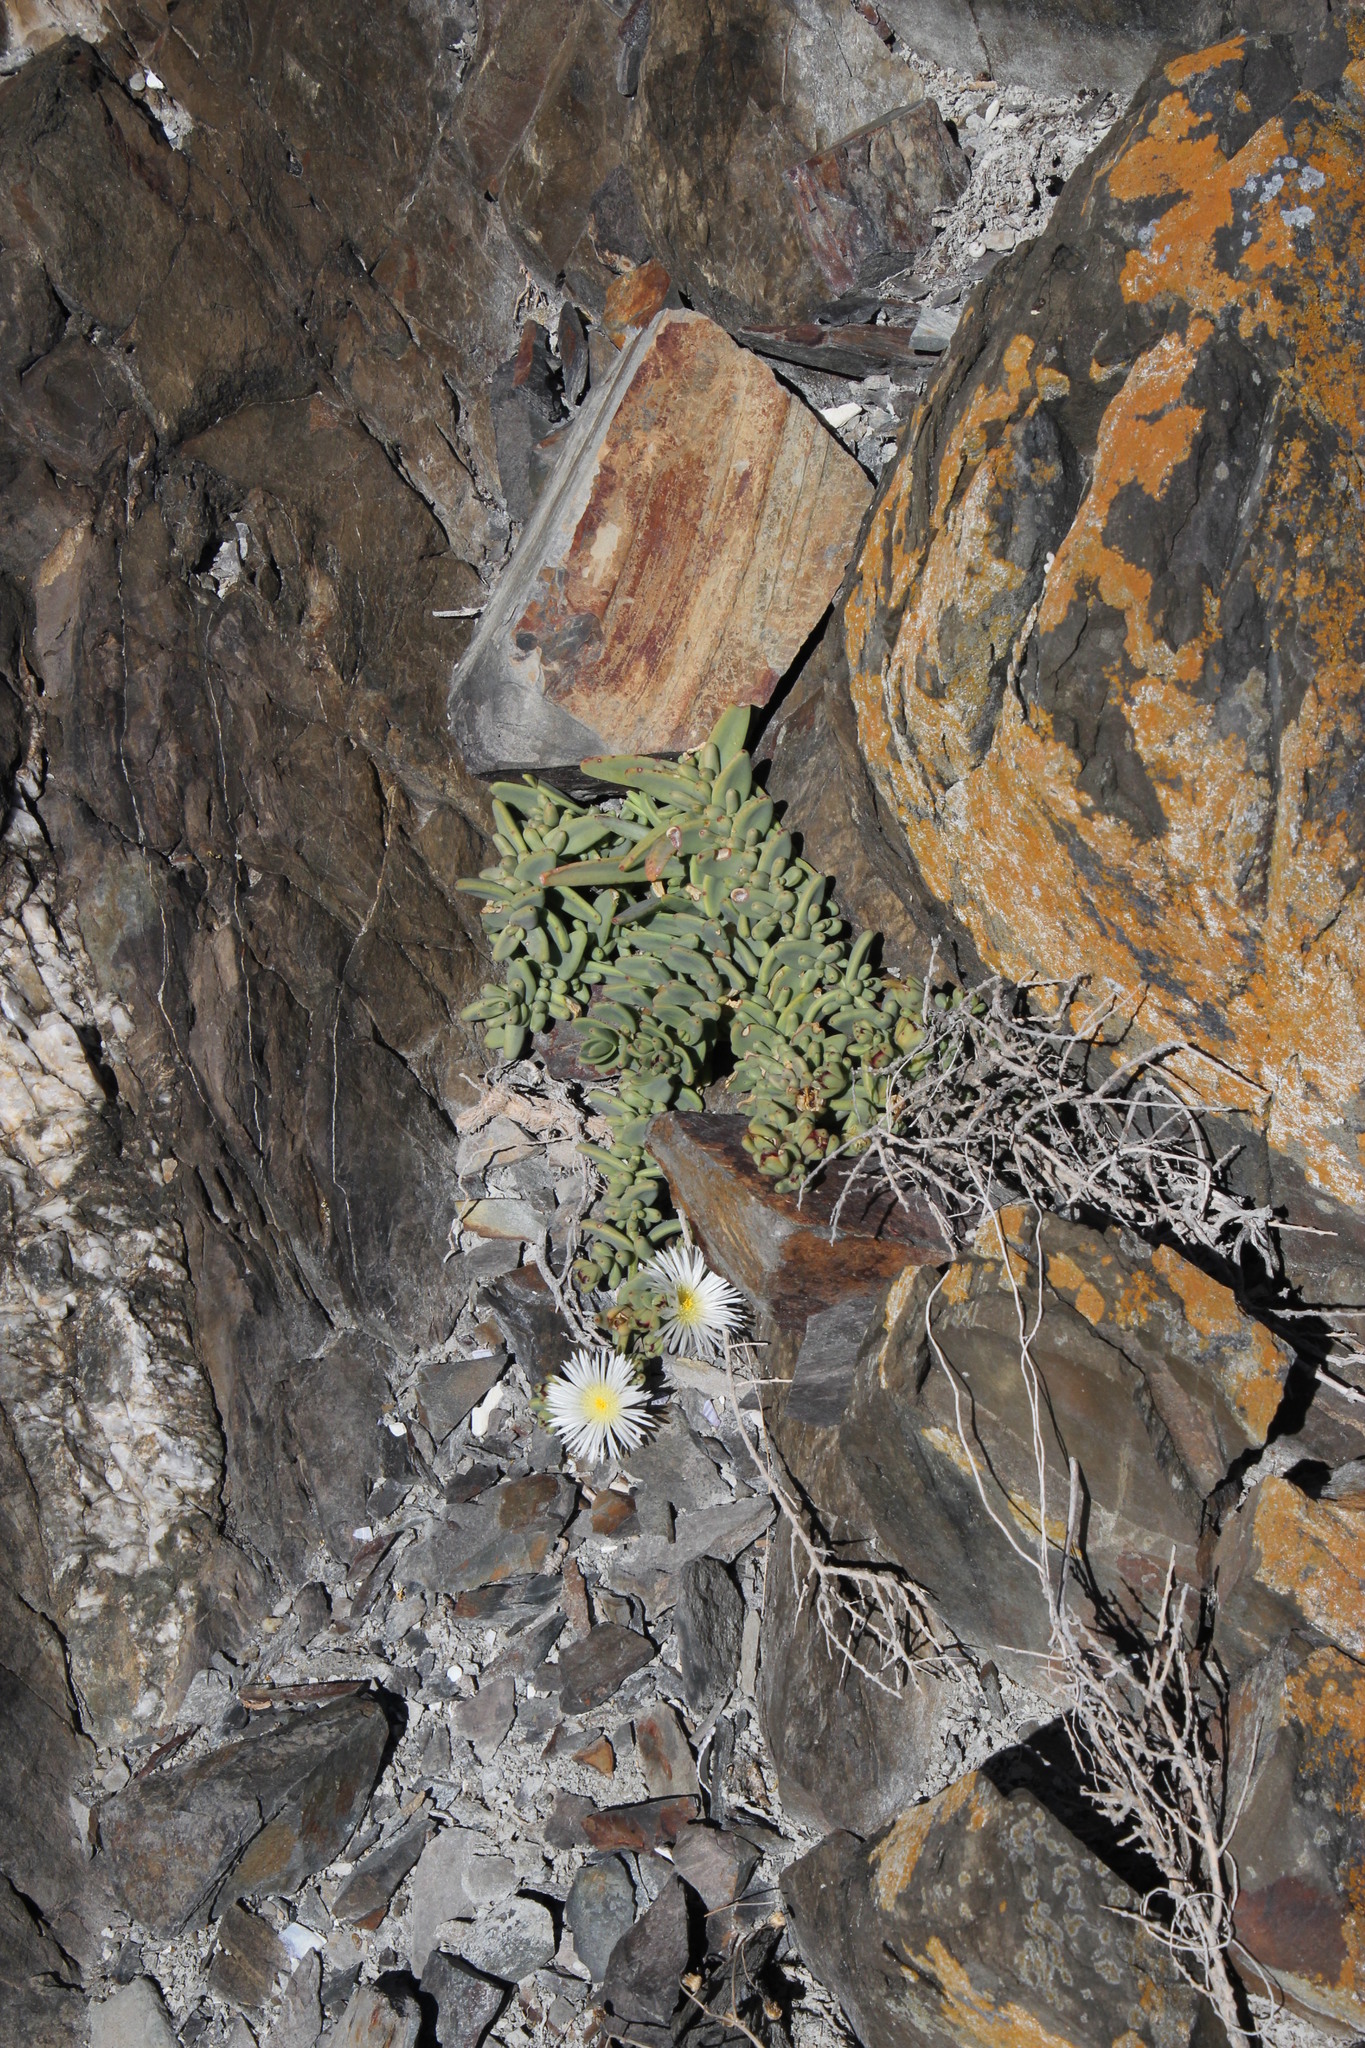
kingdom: Plantae
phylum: Tracheophyta
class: Magnoliopsida
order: Caryophyllales
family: Aizoaceae
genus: Mesembryanthemum
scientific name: Mesembryanthemum pallens
